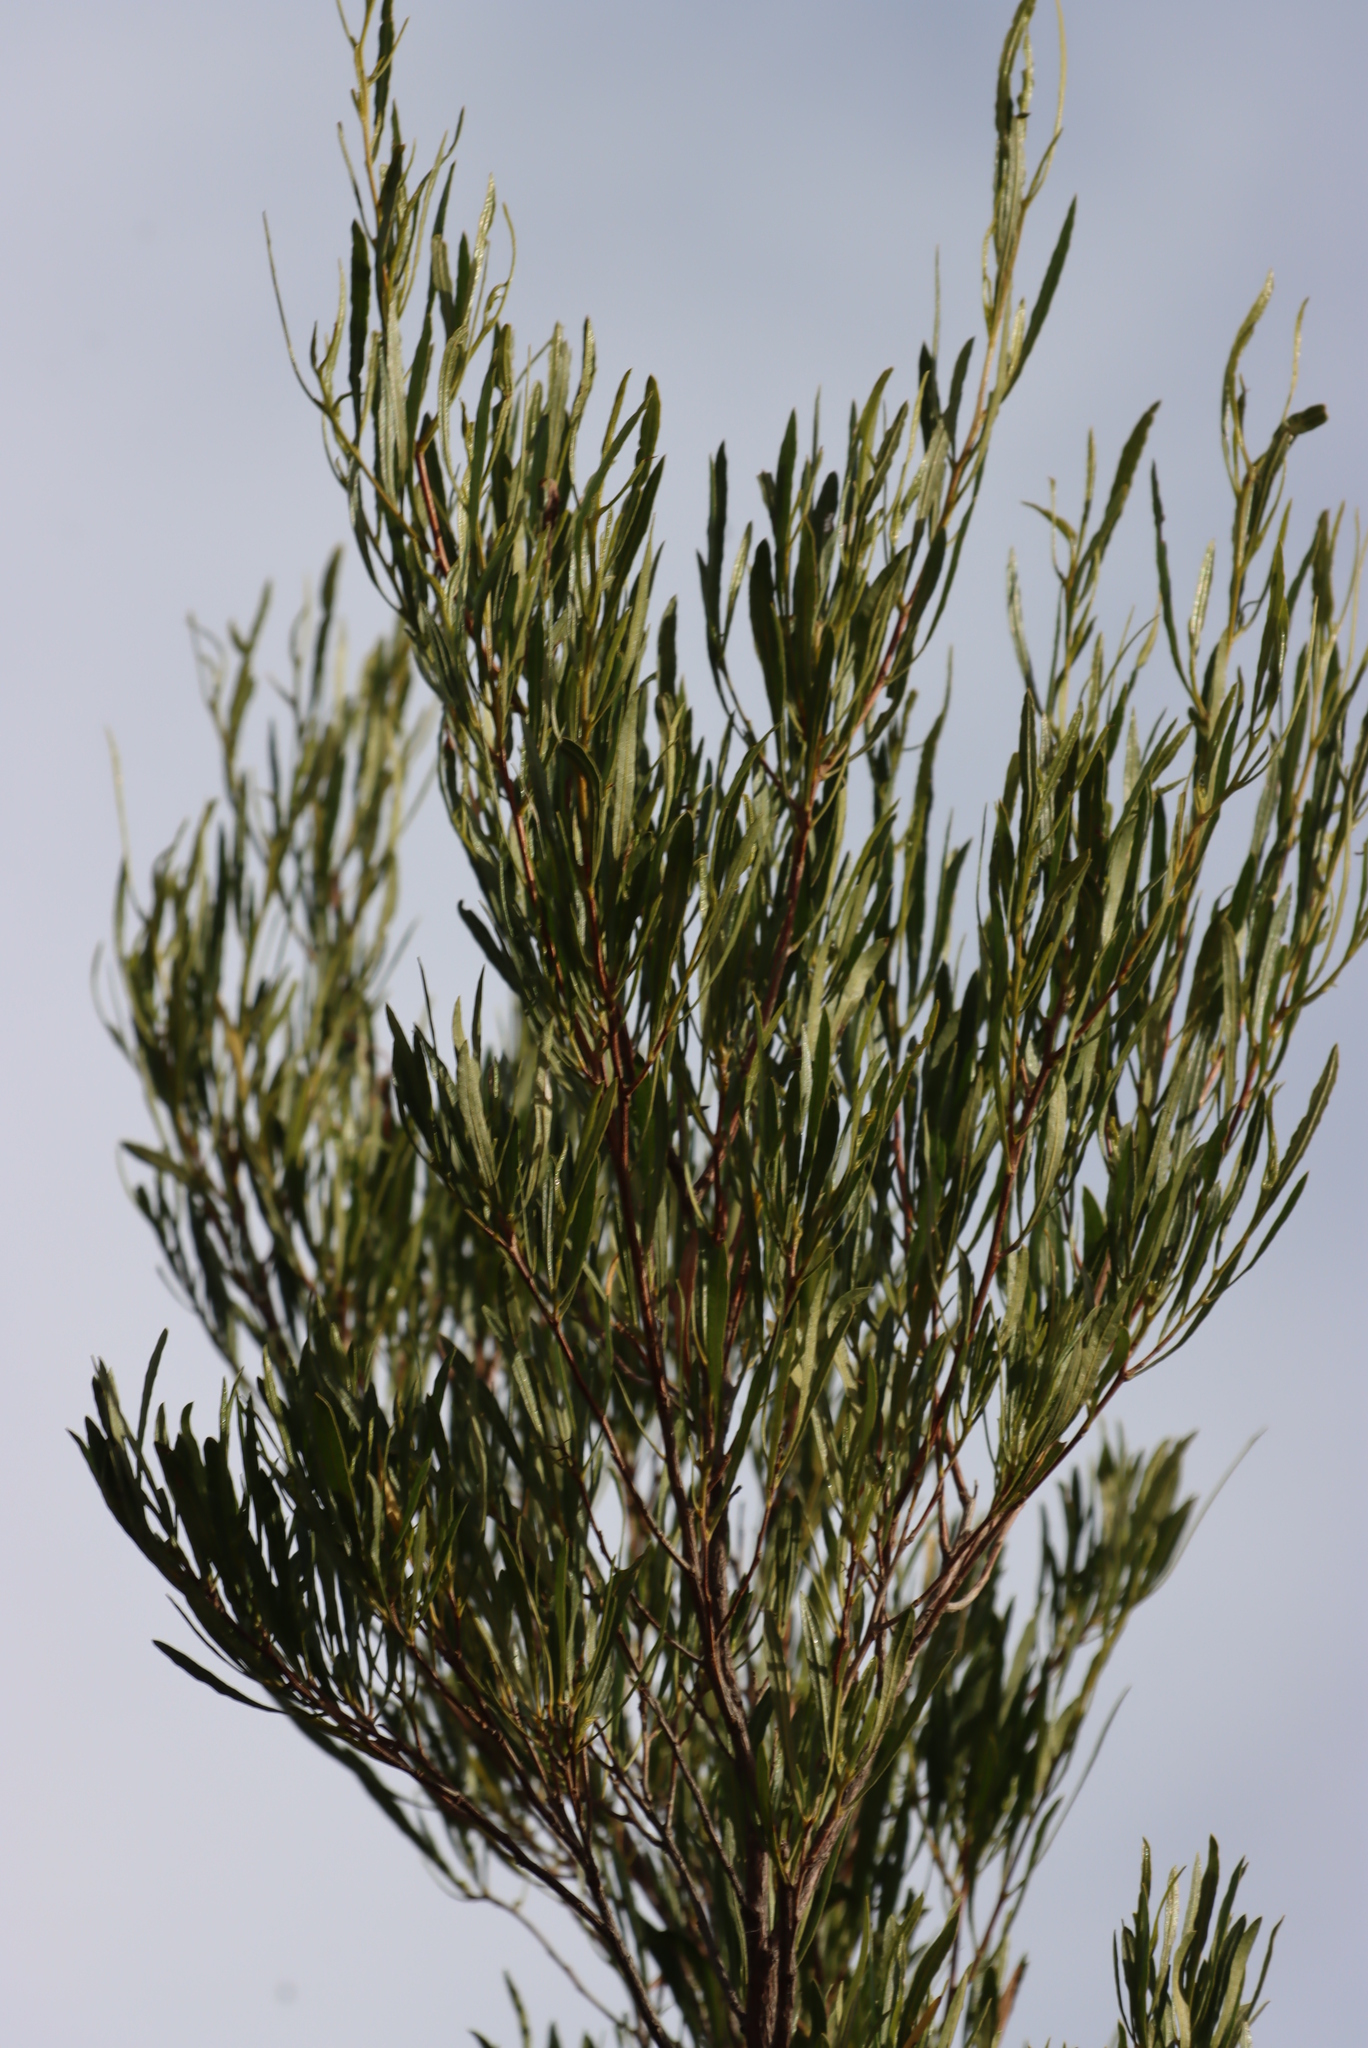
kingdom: Plantae
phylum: Tracheophyta
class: Magnoliopsida
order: Sapindales
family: Sapindaceae
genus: Dodonaea
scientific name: Dodonaea viscosa
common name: Hopbush
